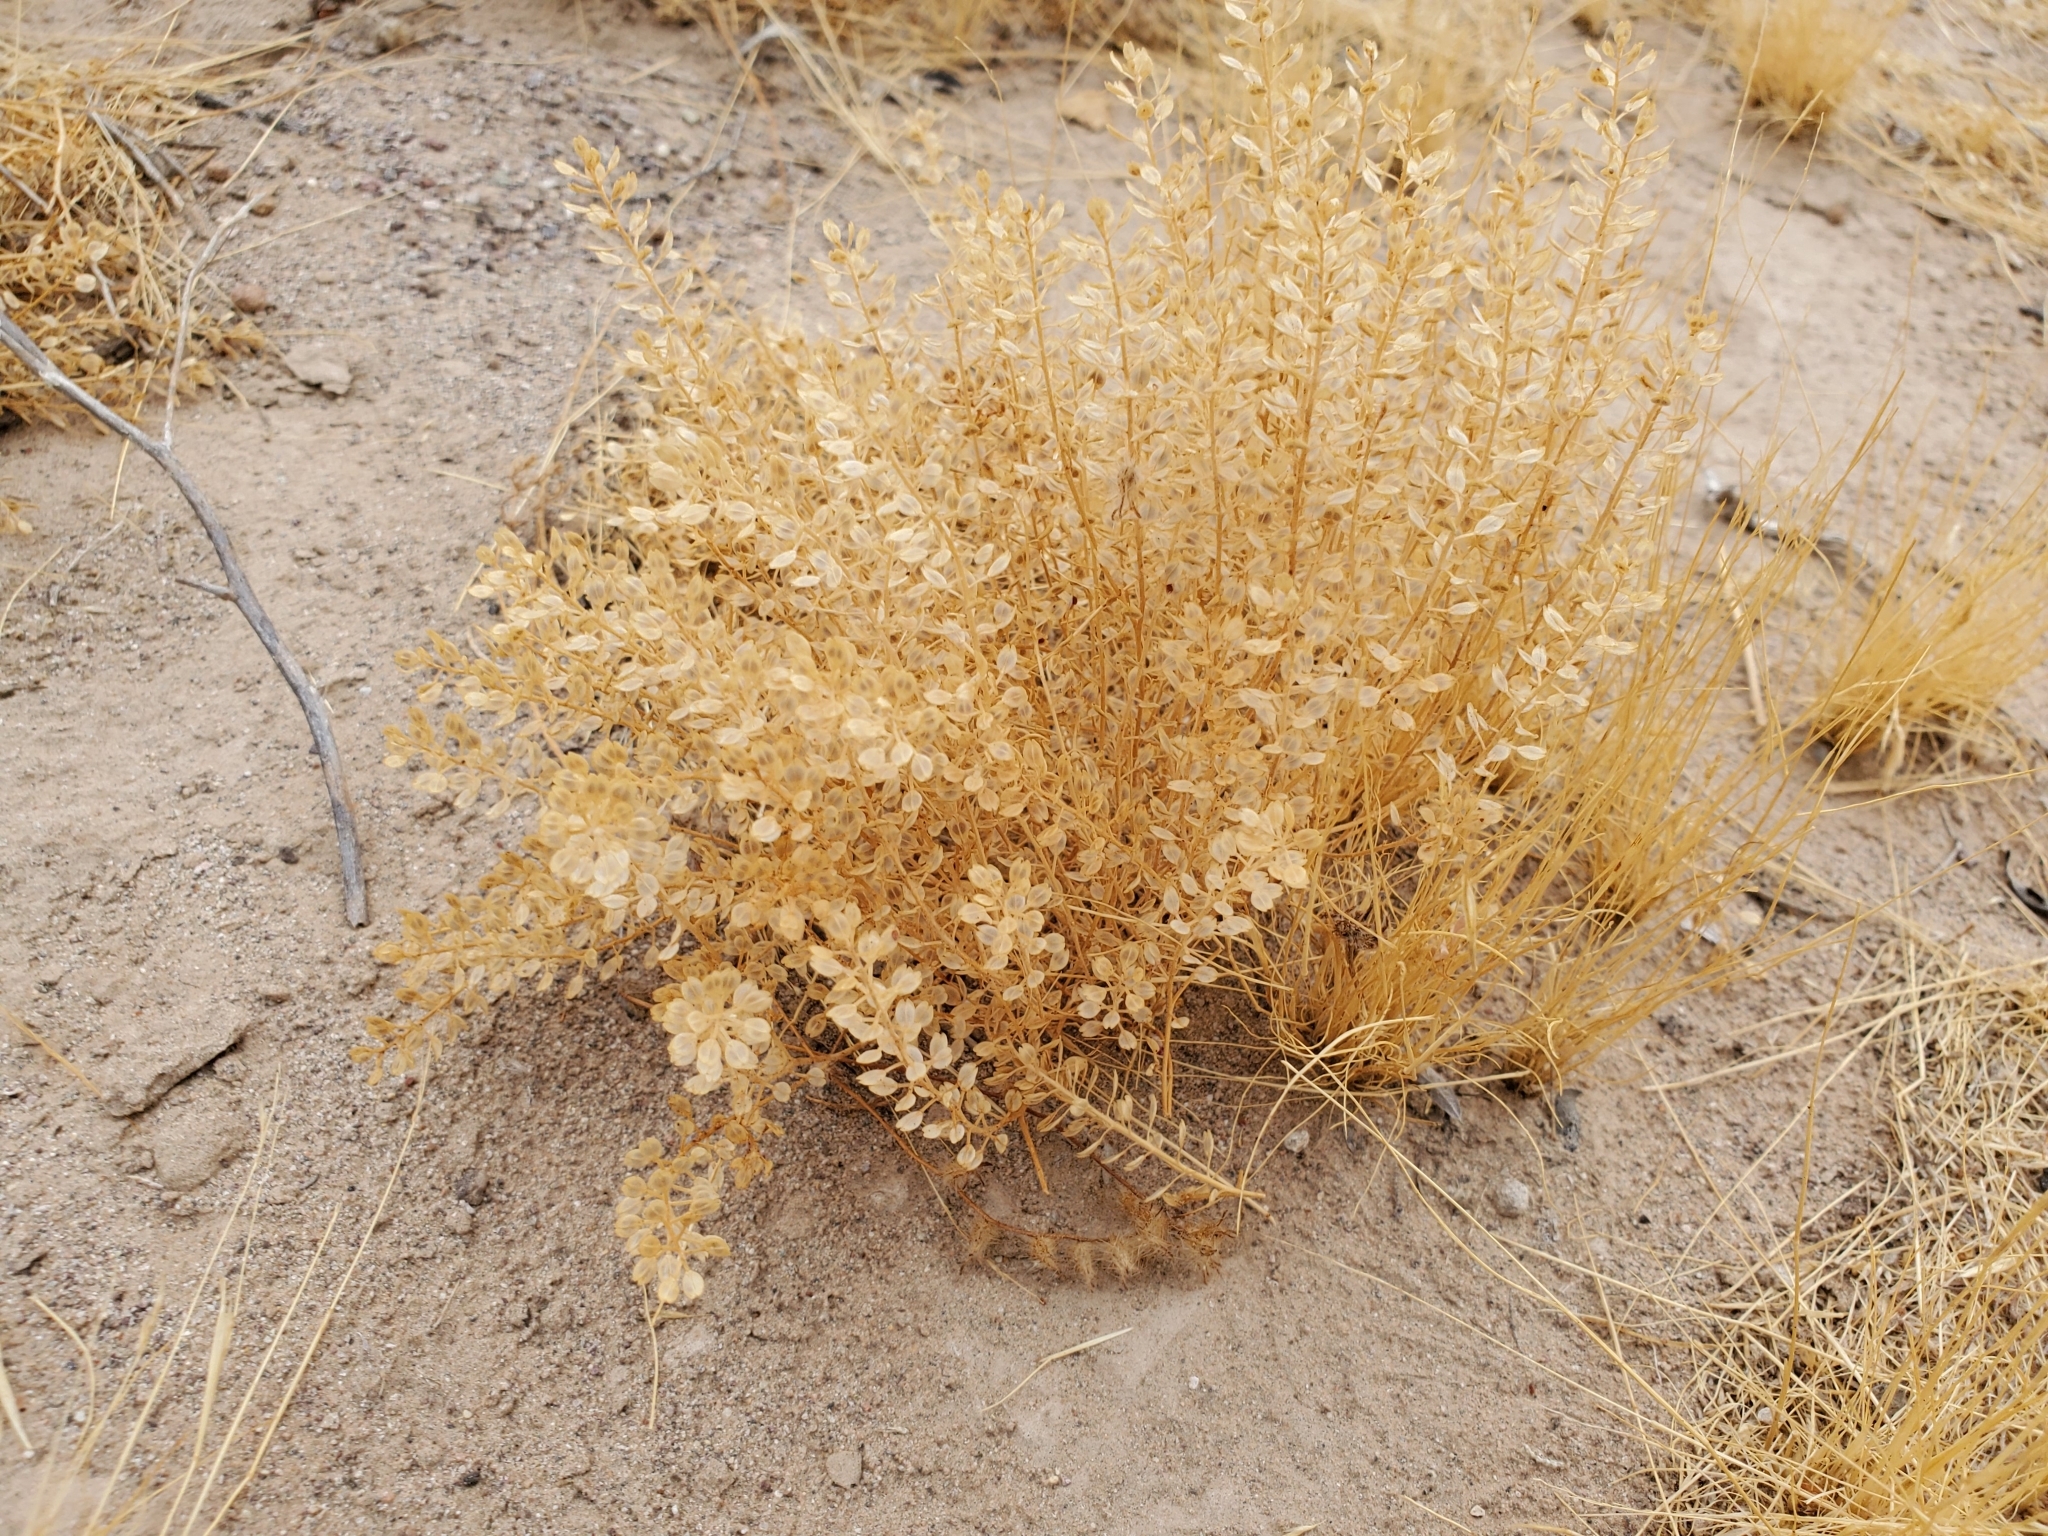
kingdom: Plantae
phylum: Tracheophyta
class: Magnoliopsida
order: Brassicales
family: Brassicaceae
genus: Lepidium
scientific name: Lepidium lasiocarpum
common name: Hairy-pod pepperwort
